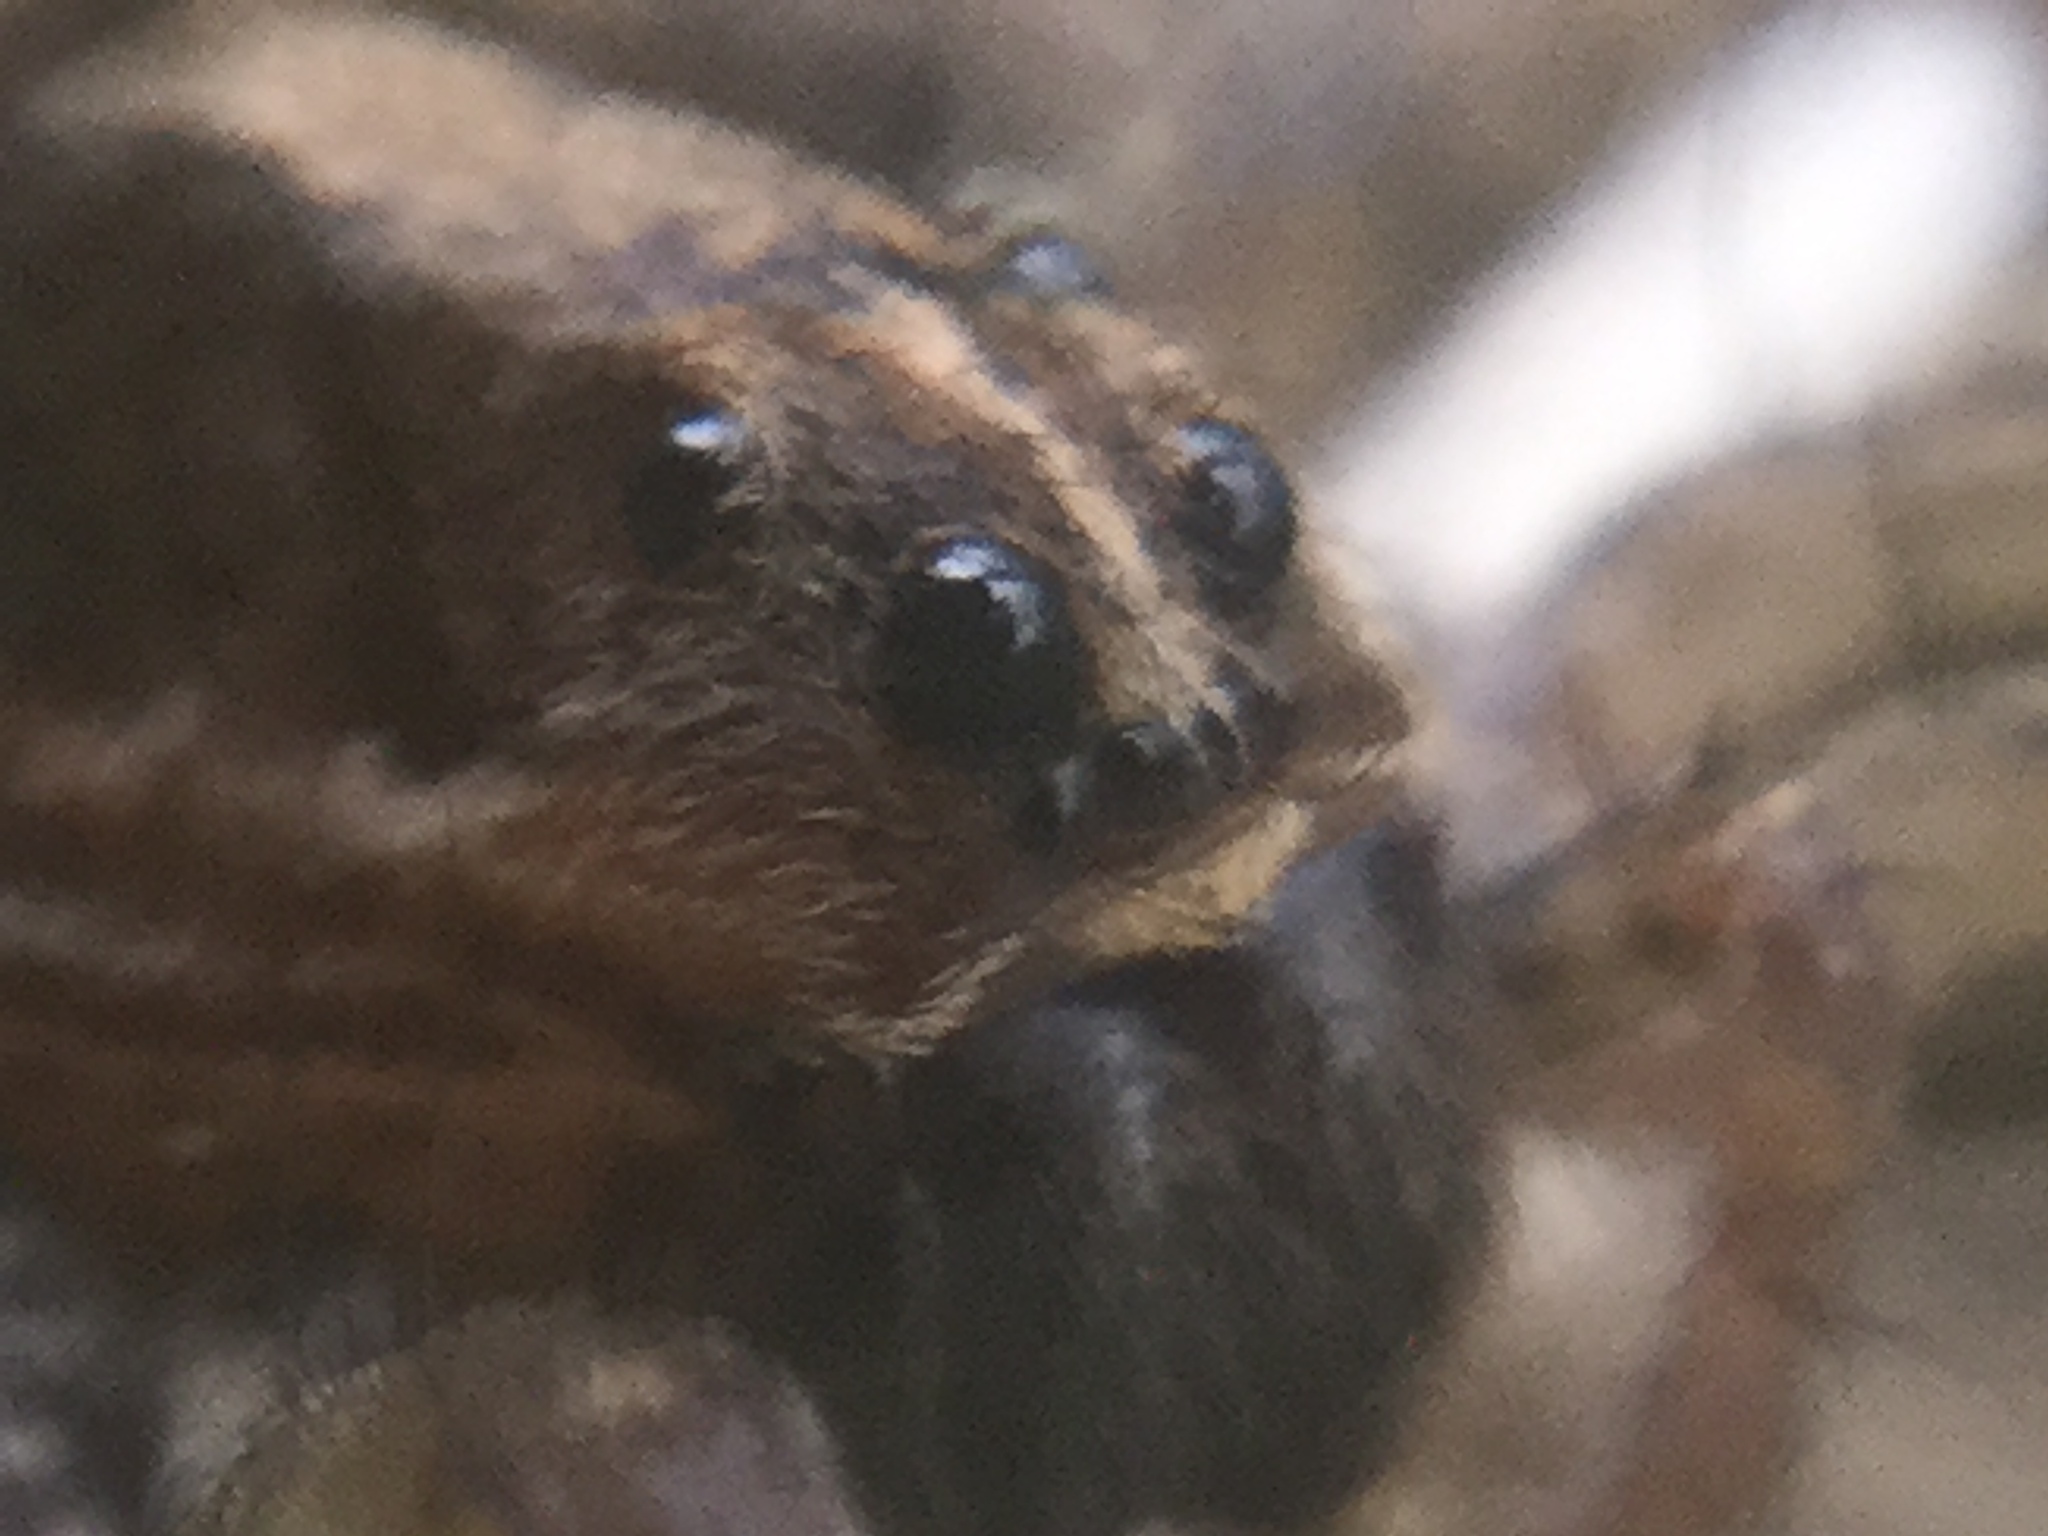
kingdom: Animalia
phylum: Arthropoda
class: Arachnida
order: Araneae
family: Lycosidae
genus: Schizocosa
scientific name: Schizocosa avida
